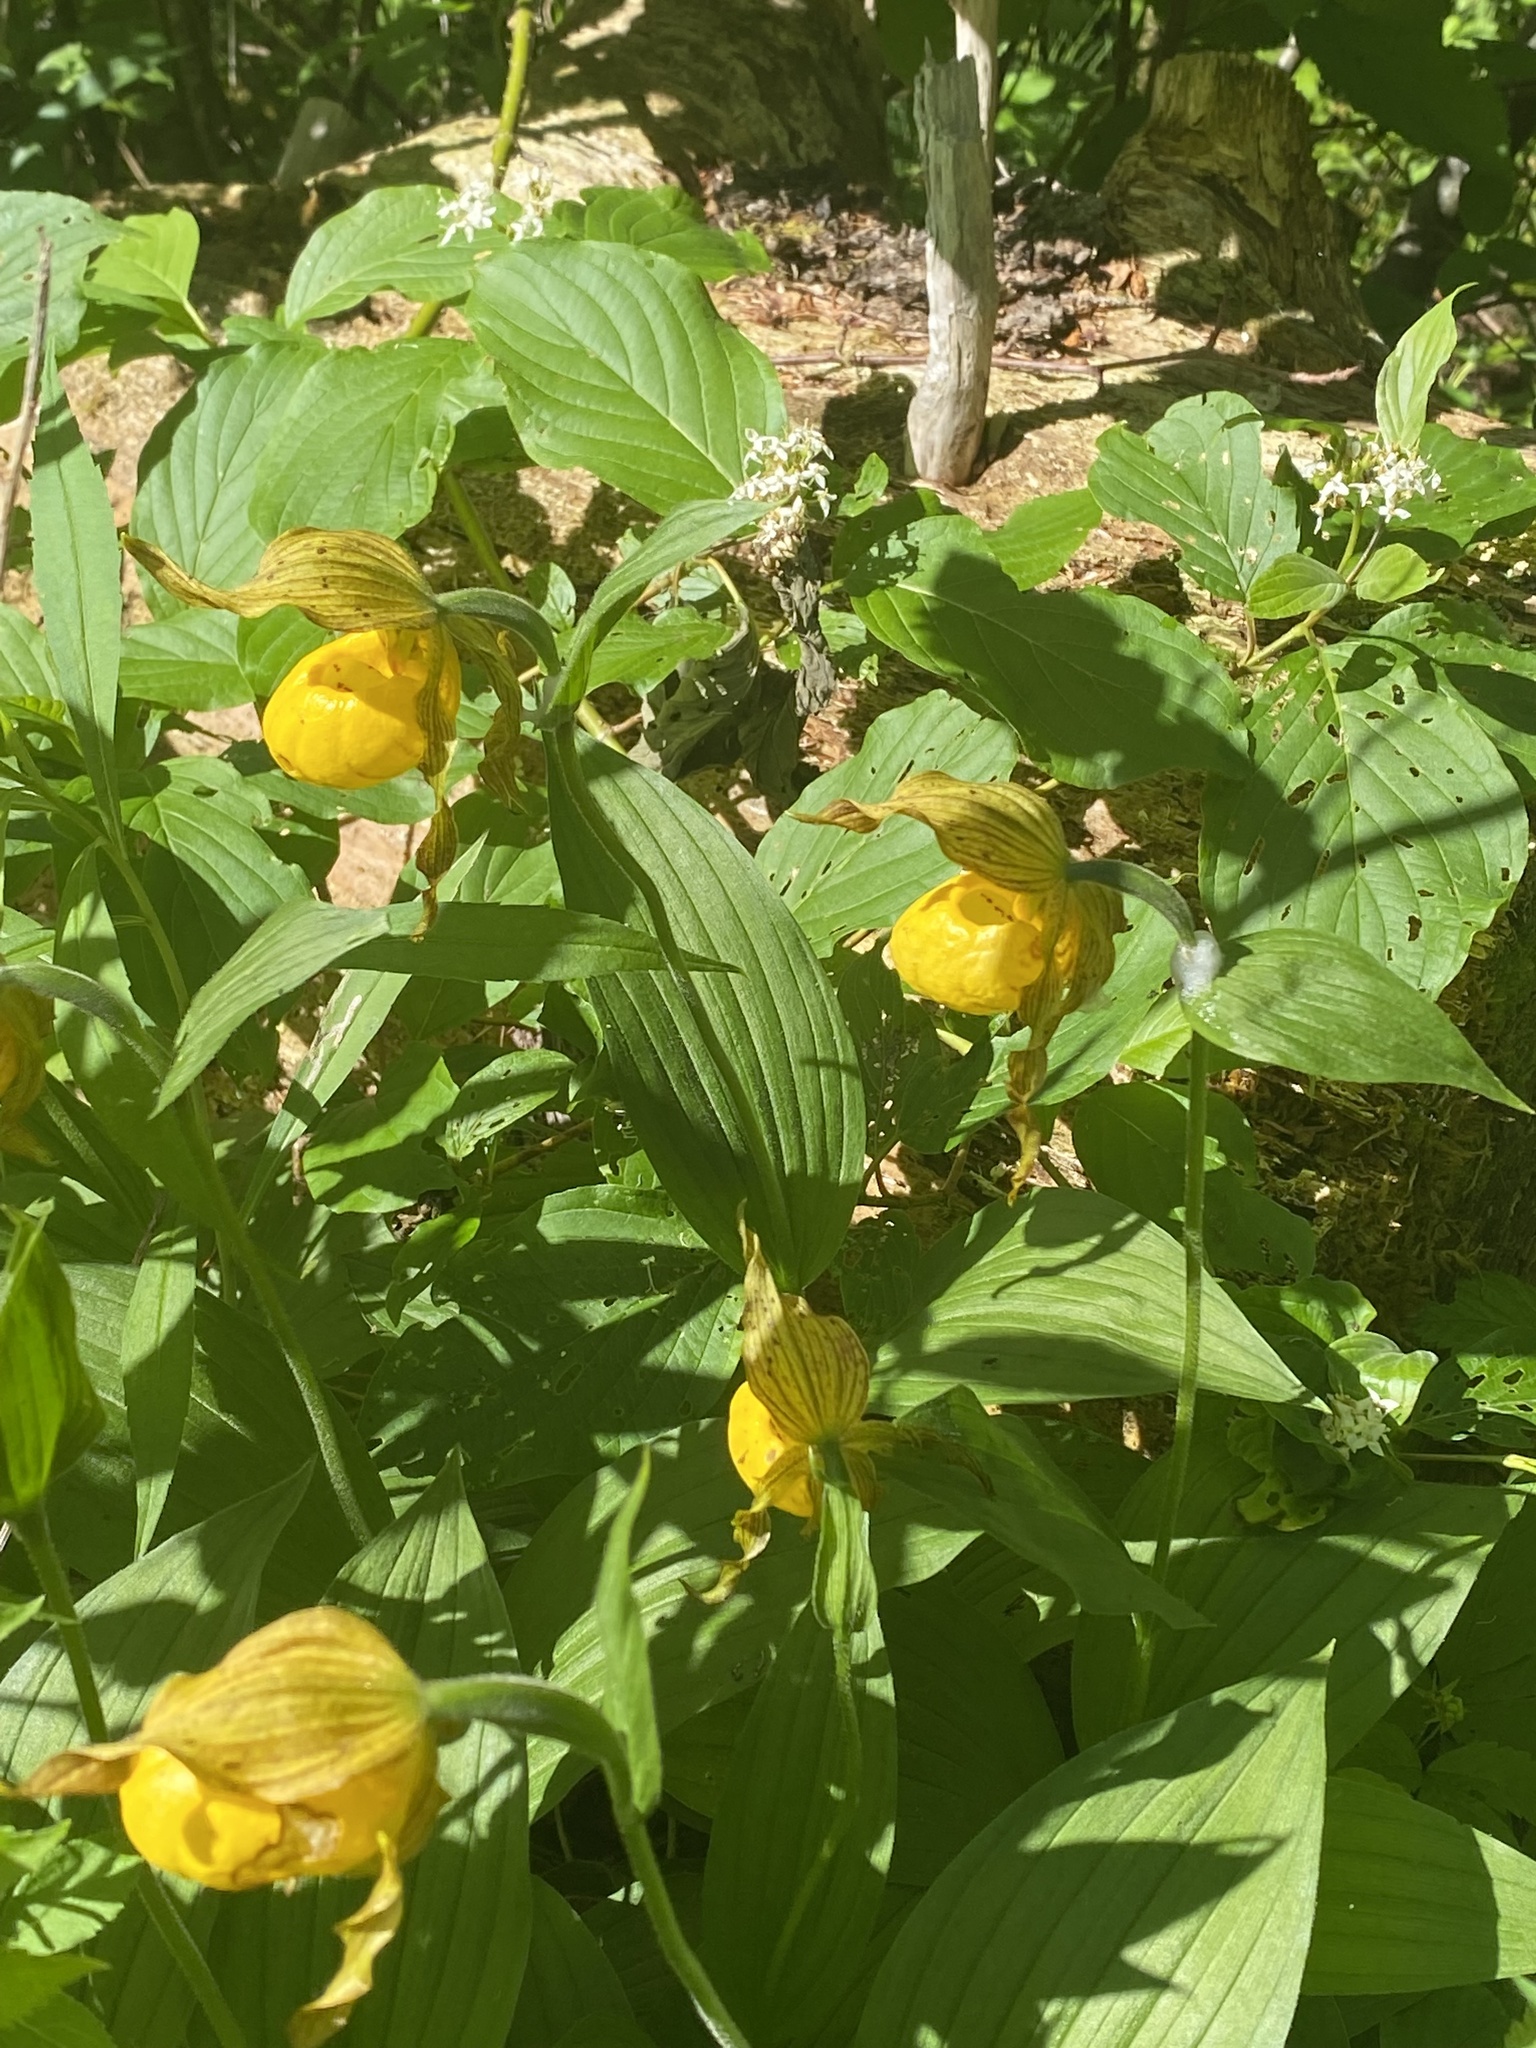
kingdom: Plantae
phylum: Tracheophyta
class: Liliopsida
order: Asparagales
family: Orchidaceae
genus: Cypripedium
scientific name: Cypripedium parviflorum
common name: American yellow lady's-slipper
